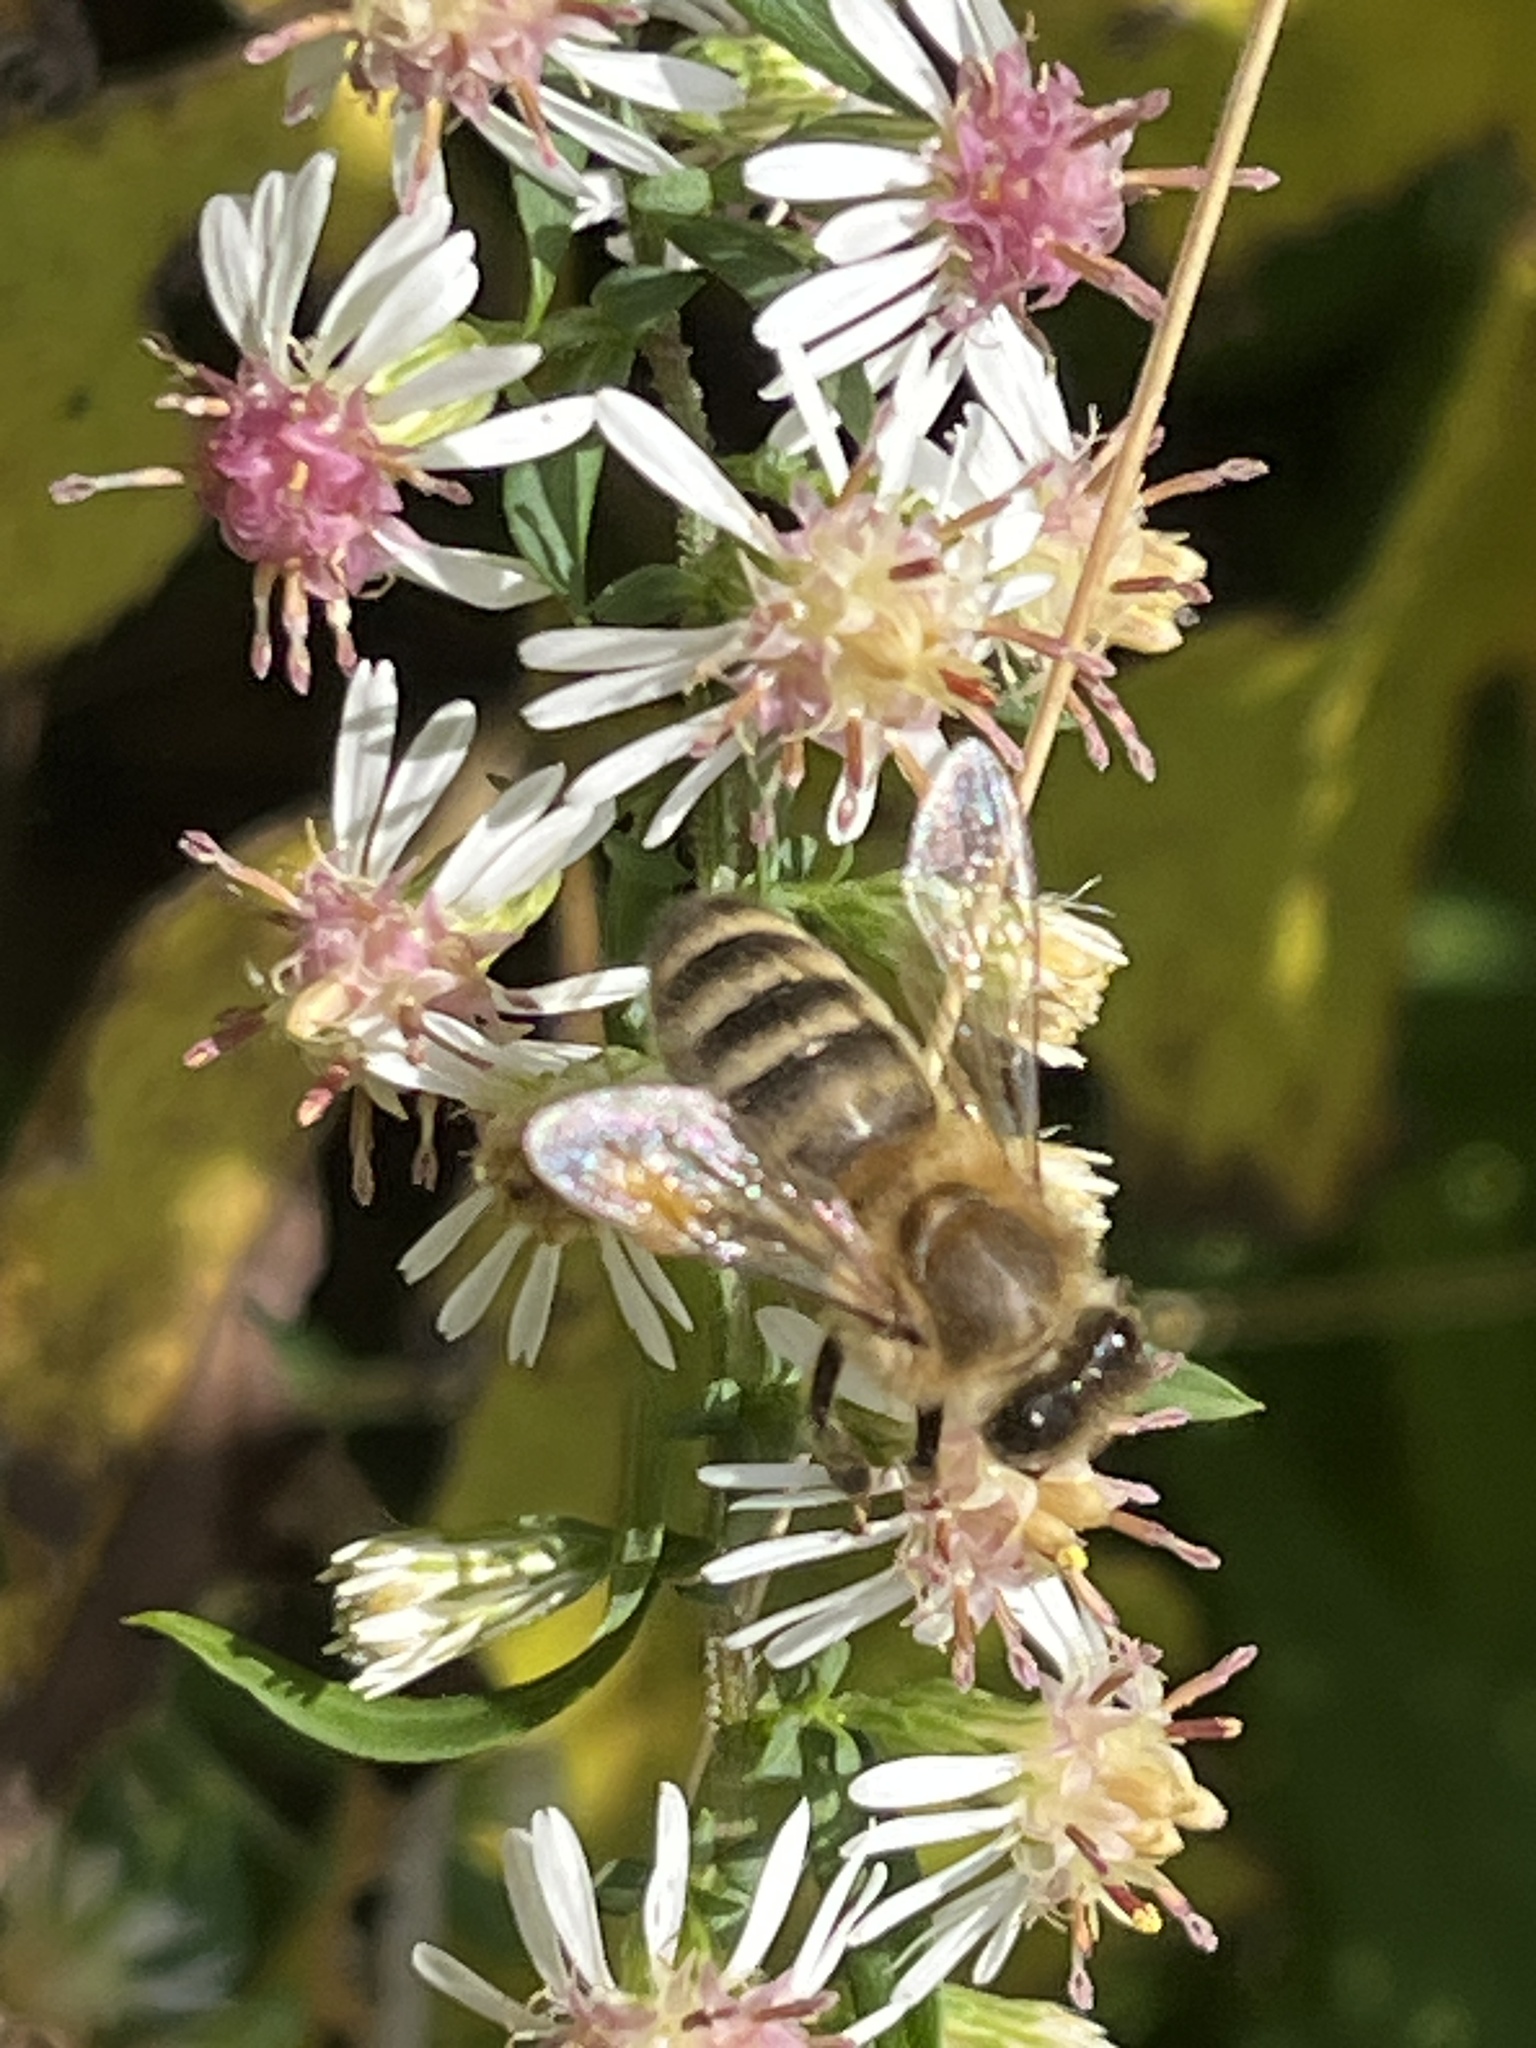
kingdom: Animalia
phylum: Arthropoda
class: Insecta
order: Hymenoptera
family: Apidae
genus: Apis
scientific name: Apis mellifera
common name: Honey bee
